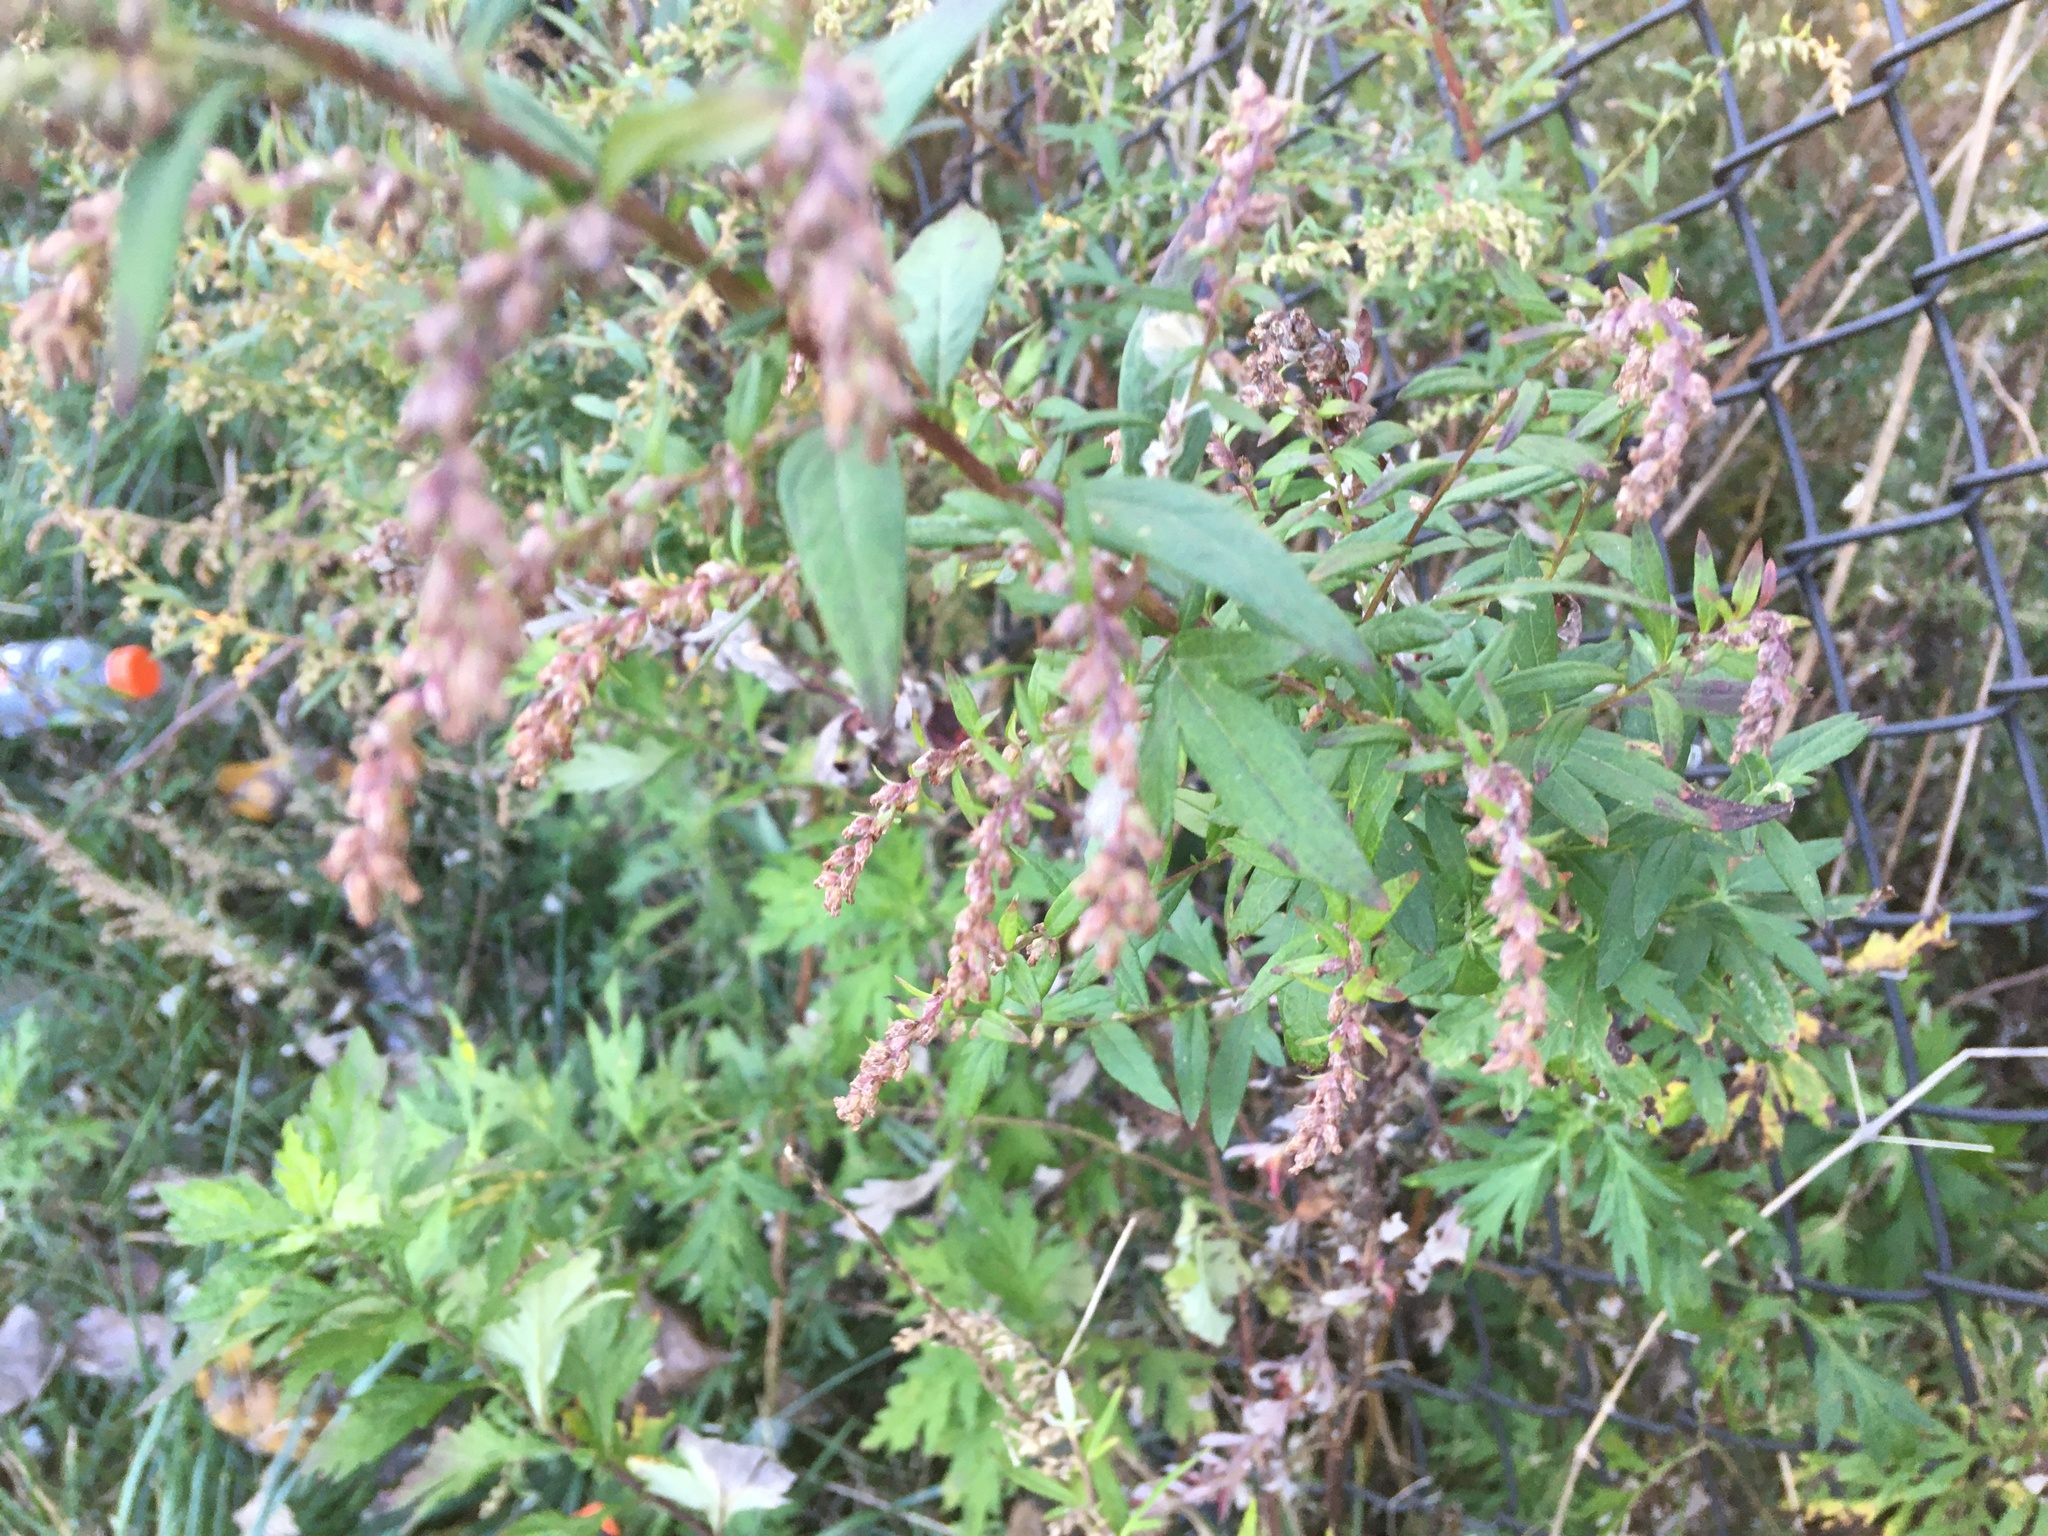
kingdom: Plantae
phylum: Tracheophyta
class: Magnoliopsida
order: Asterales
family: Asteraceae
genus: Artemisia
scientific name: Artemisia vulgaris
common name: Mugwort
